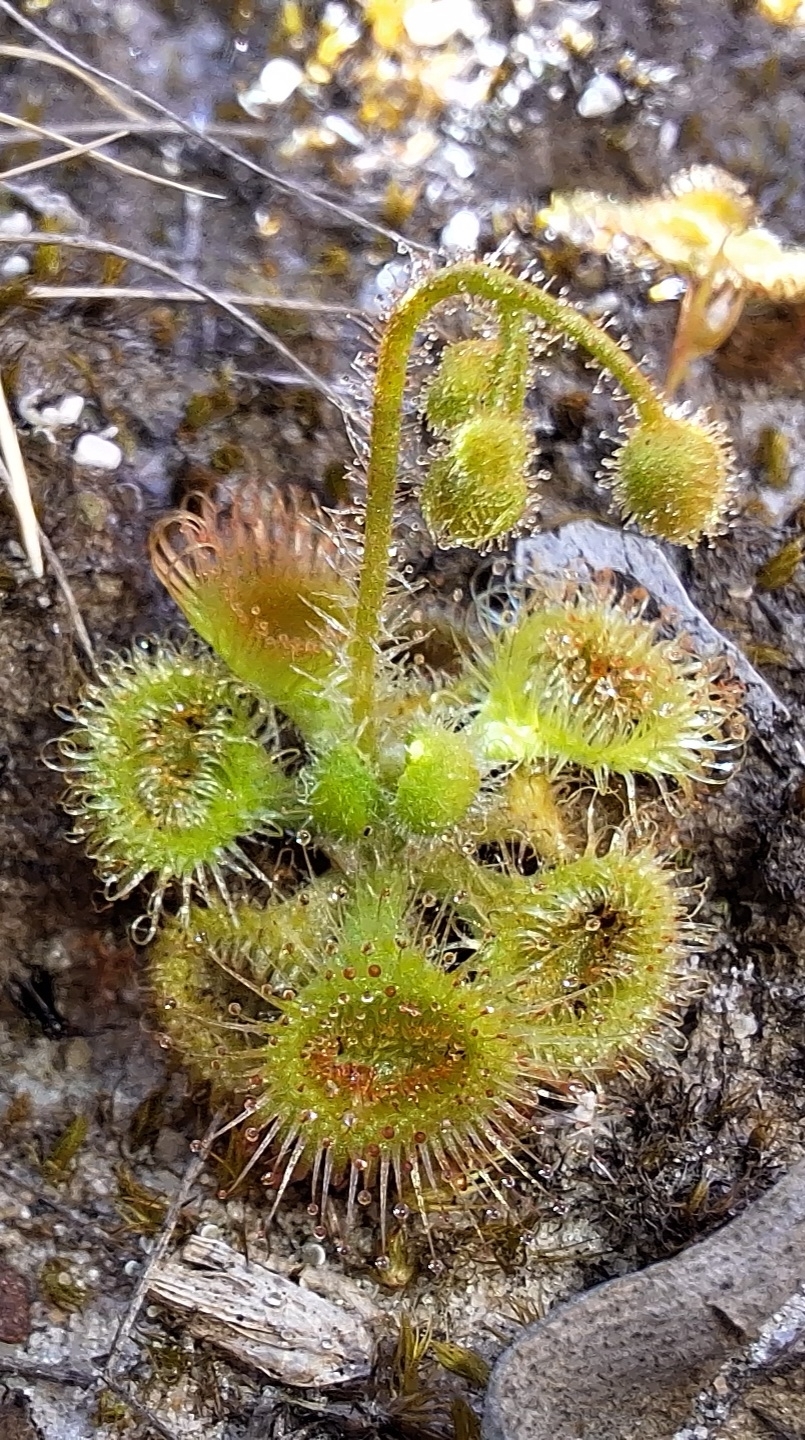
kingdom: Plantae
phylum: Tracheophyta
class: Magnoliopsida
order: Caryophyllales
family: Droseraceae
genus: Drosera
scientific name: Drosera glanduligera
